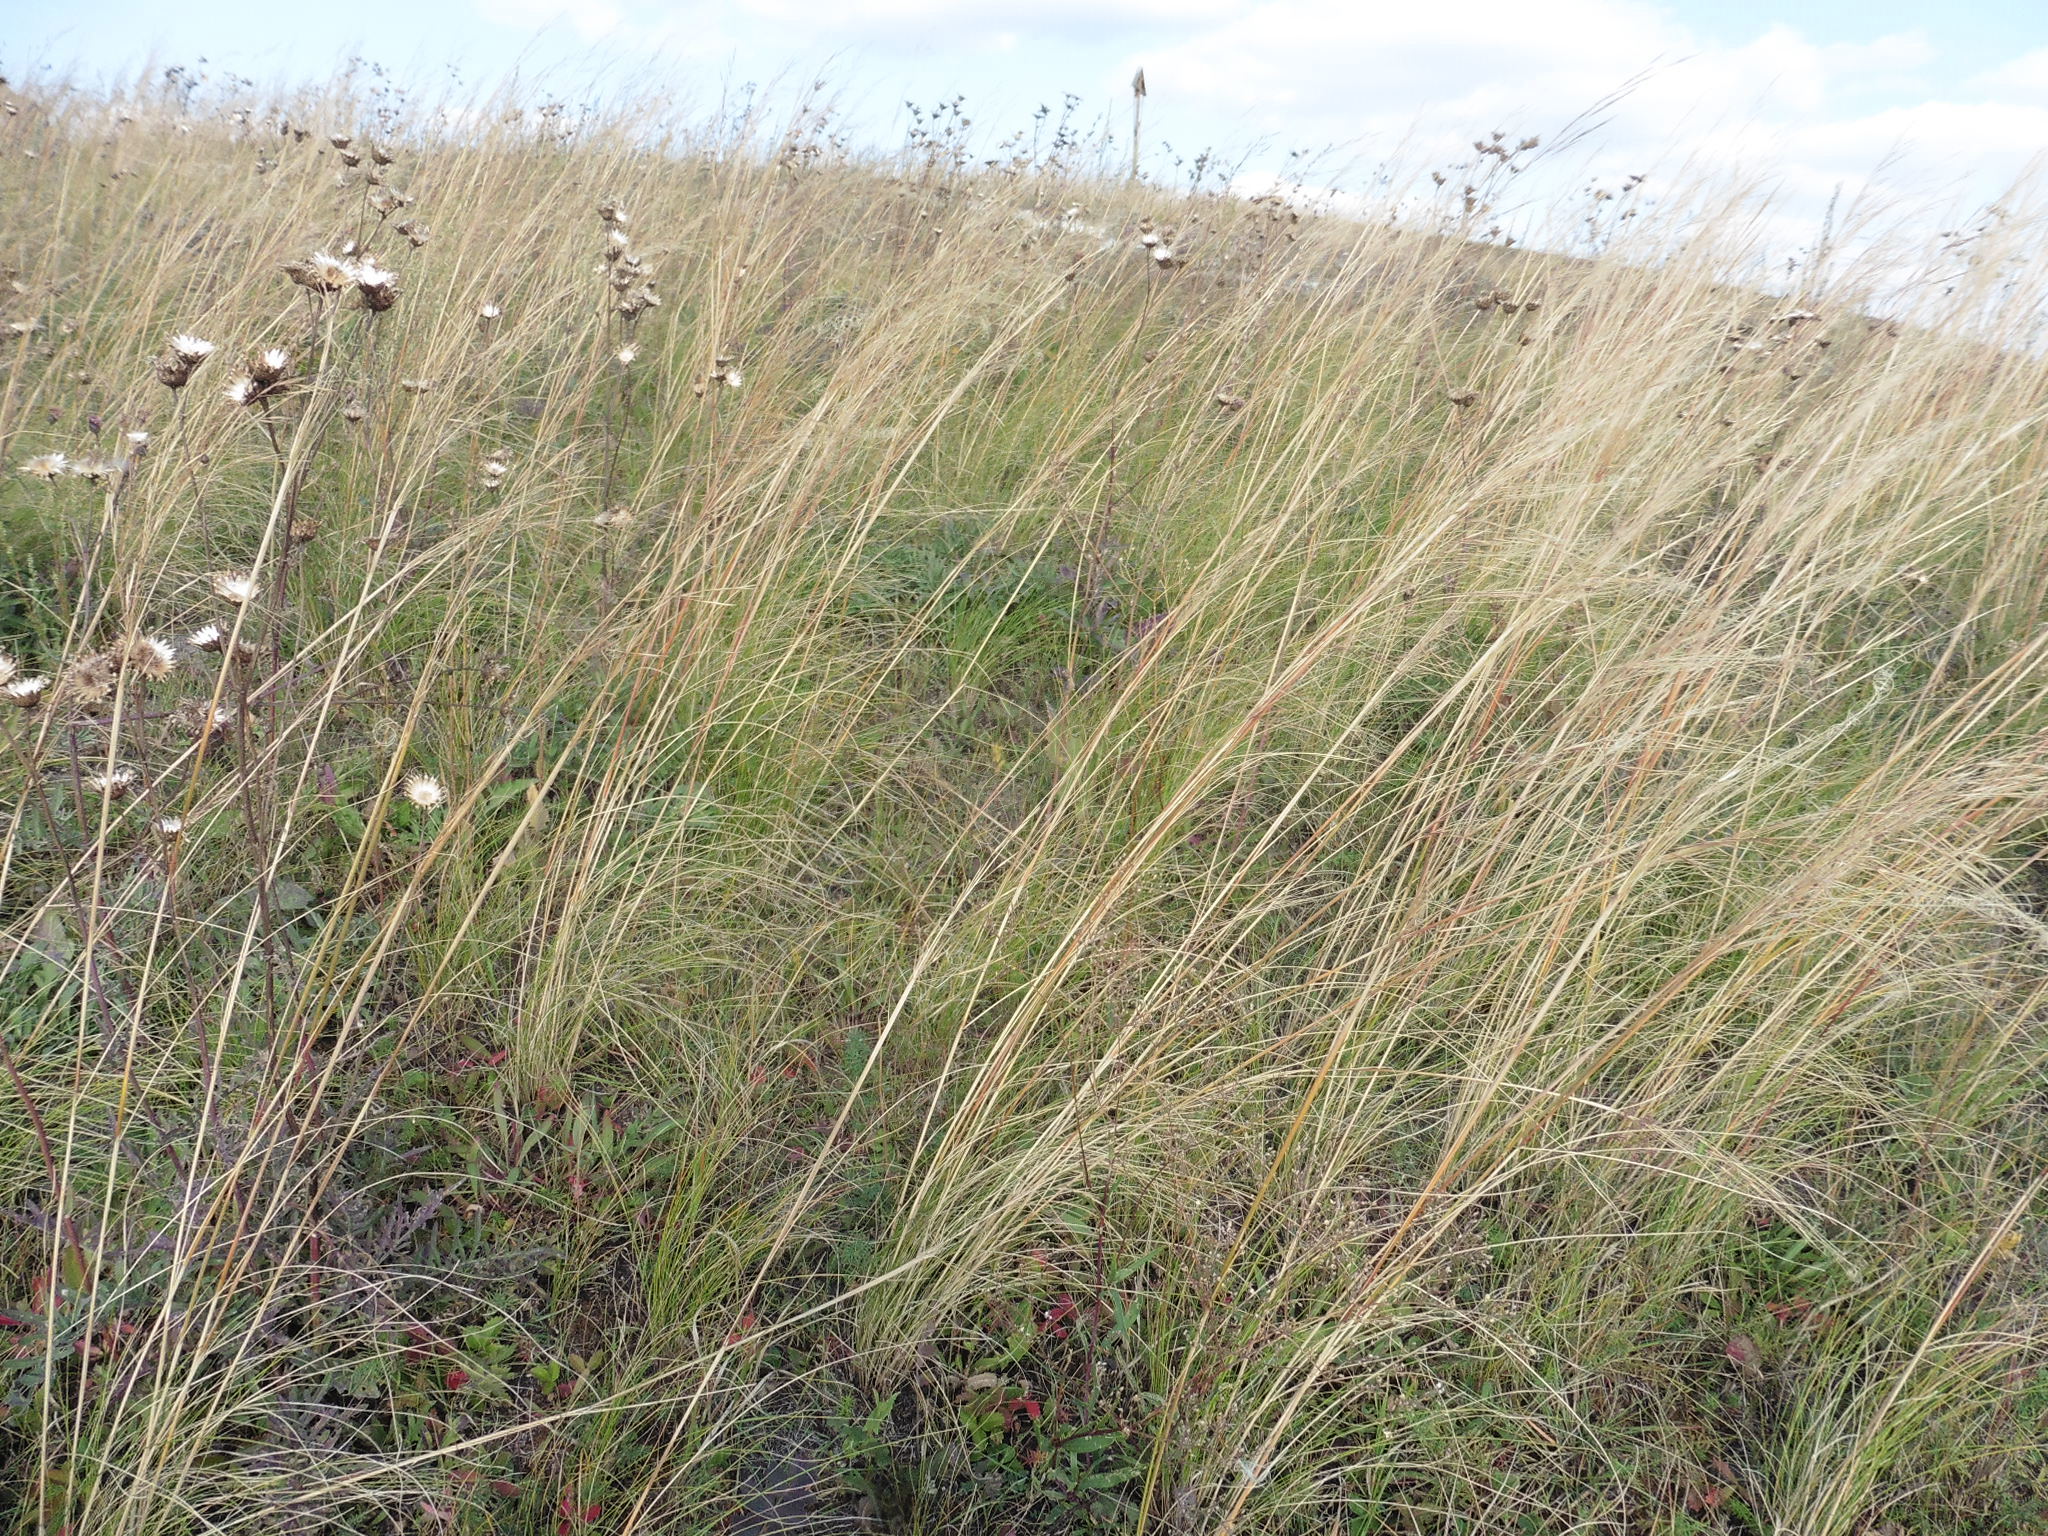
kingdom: Plantae
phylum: Tracheophyta
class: Liliopsida
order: Poales
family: Poaceae
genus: Stipa
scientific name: Stipa capillata
